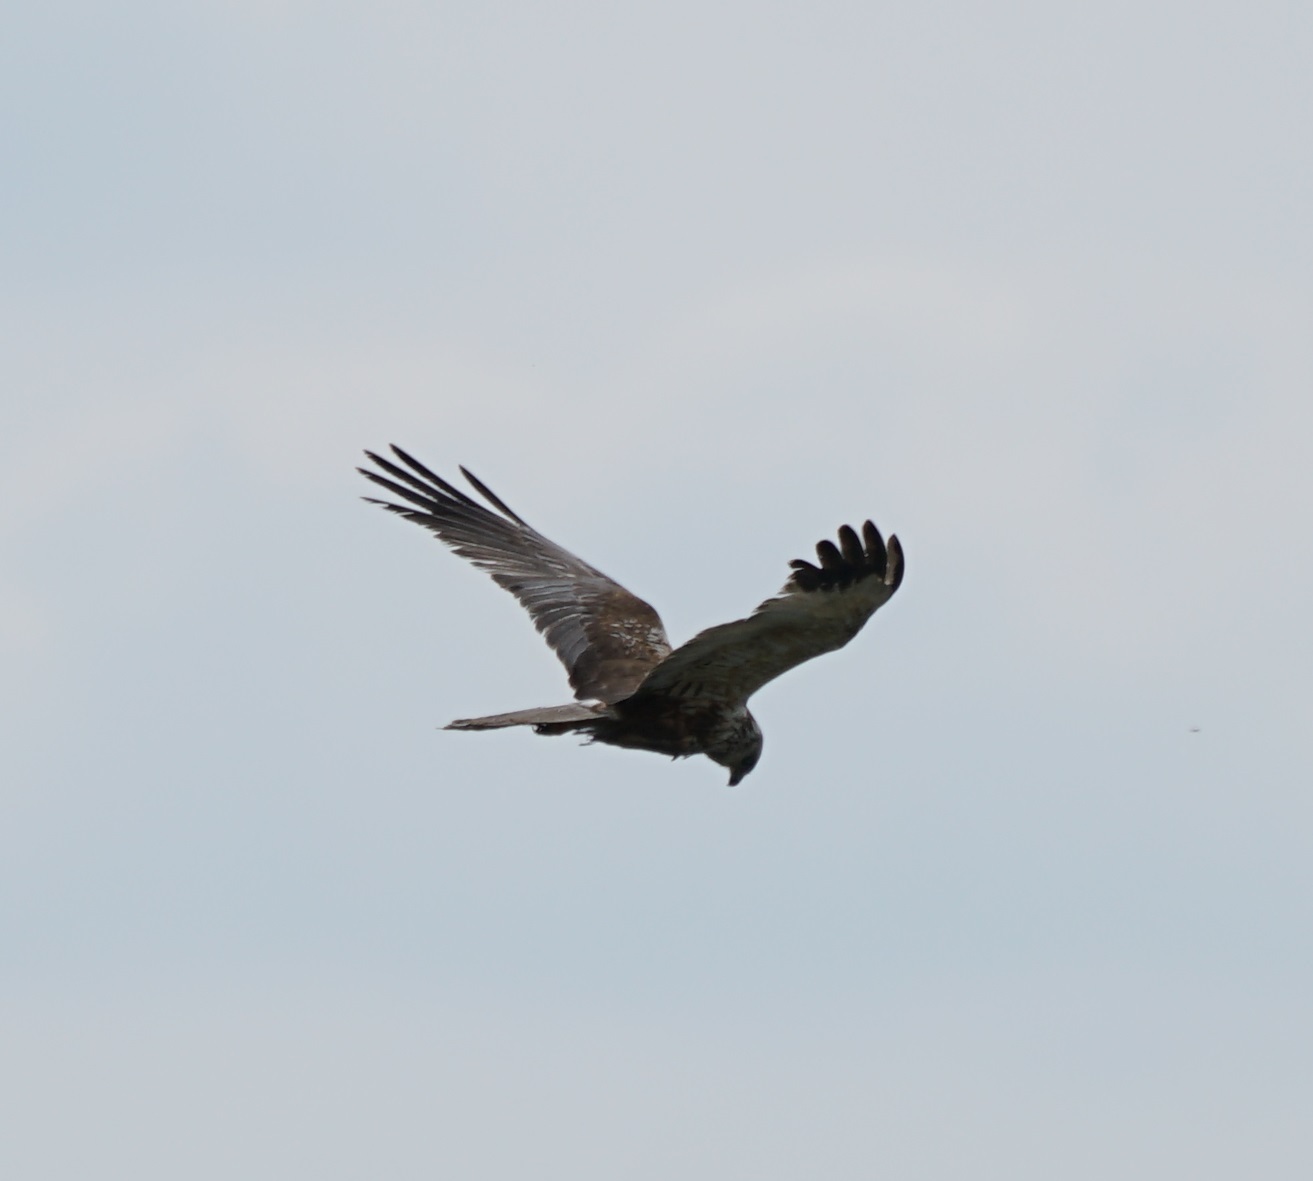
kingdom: Animalia
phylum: Chordata
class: Aves
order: Accipitriformes
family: Accipitridae
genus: Circus
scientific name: Circus aeruginosus
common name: Western marsh harrier
